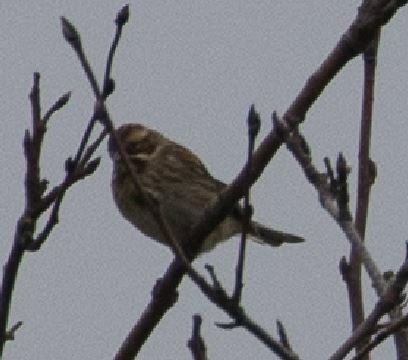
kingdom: Animalia
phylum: Chordata
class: Aves
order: Passeriformes
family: Emberizidae
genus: Emberiza
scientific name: Emberiza schoeniclus
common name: Reed bunting
